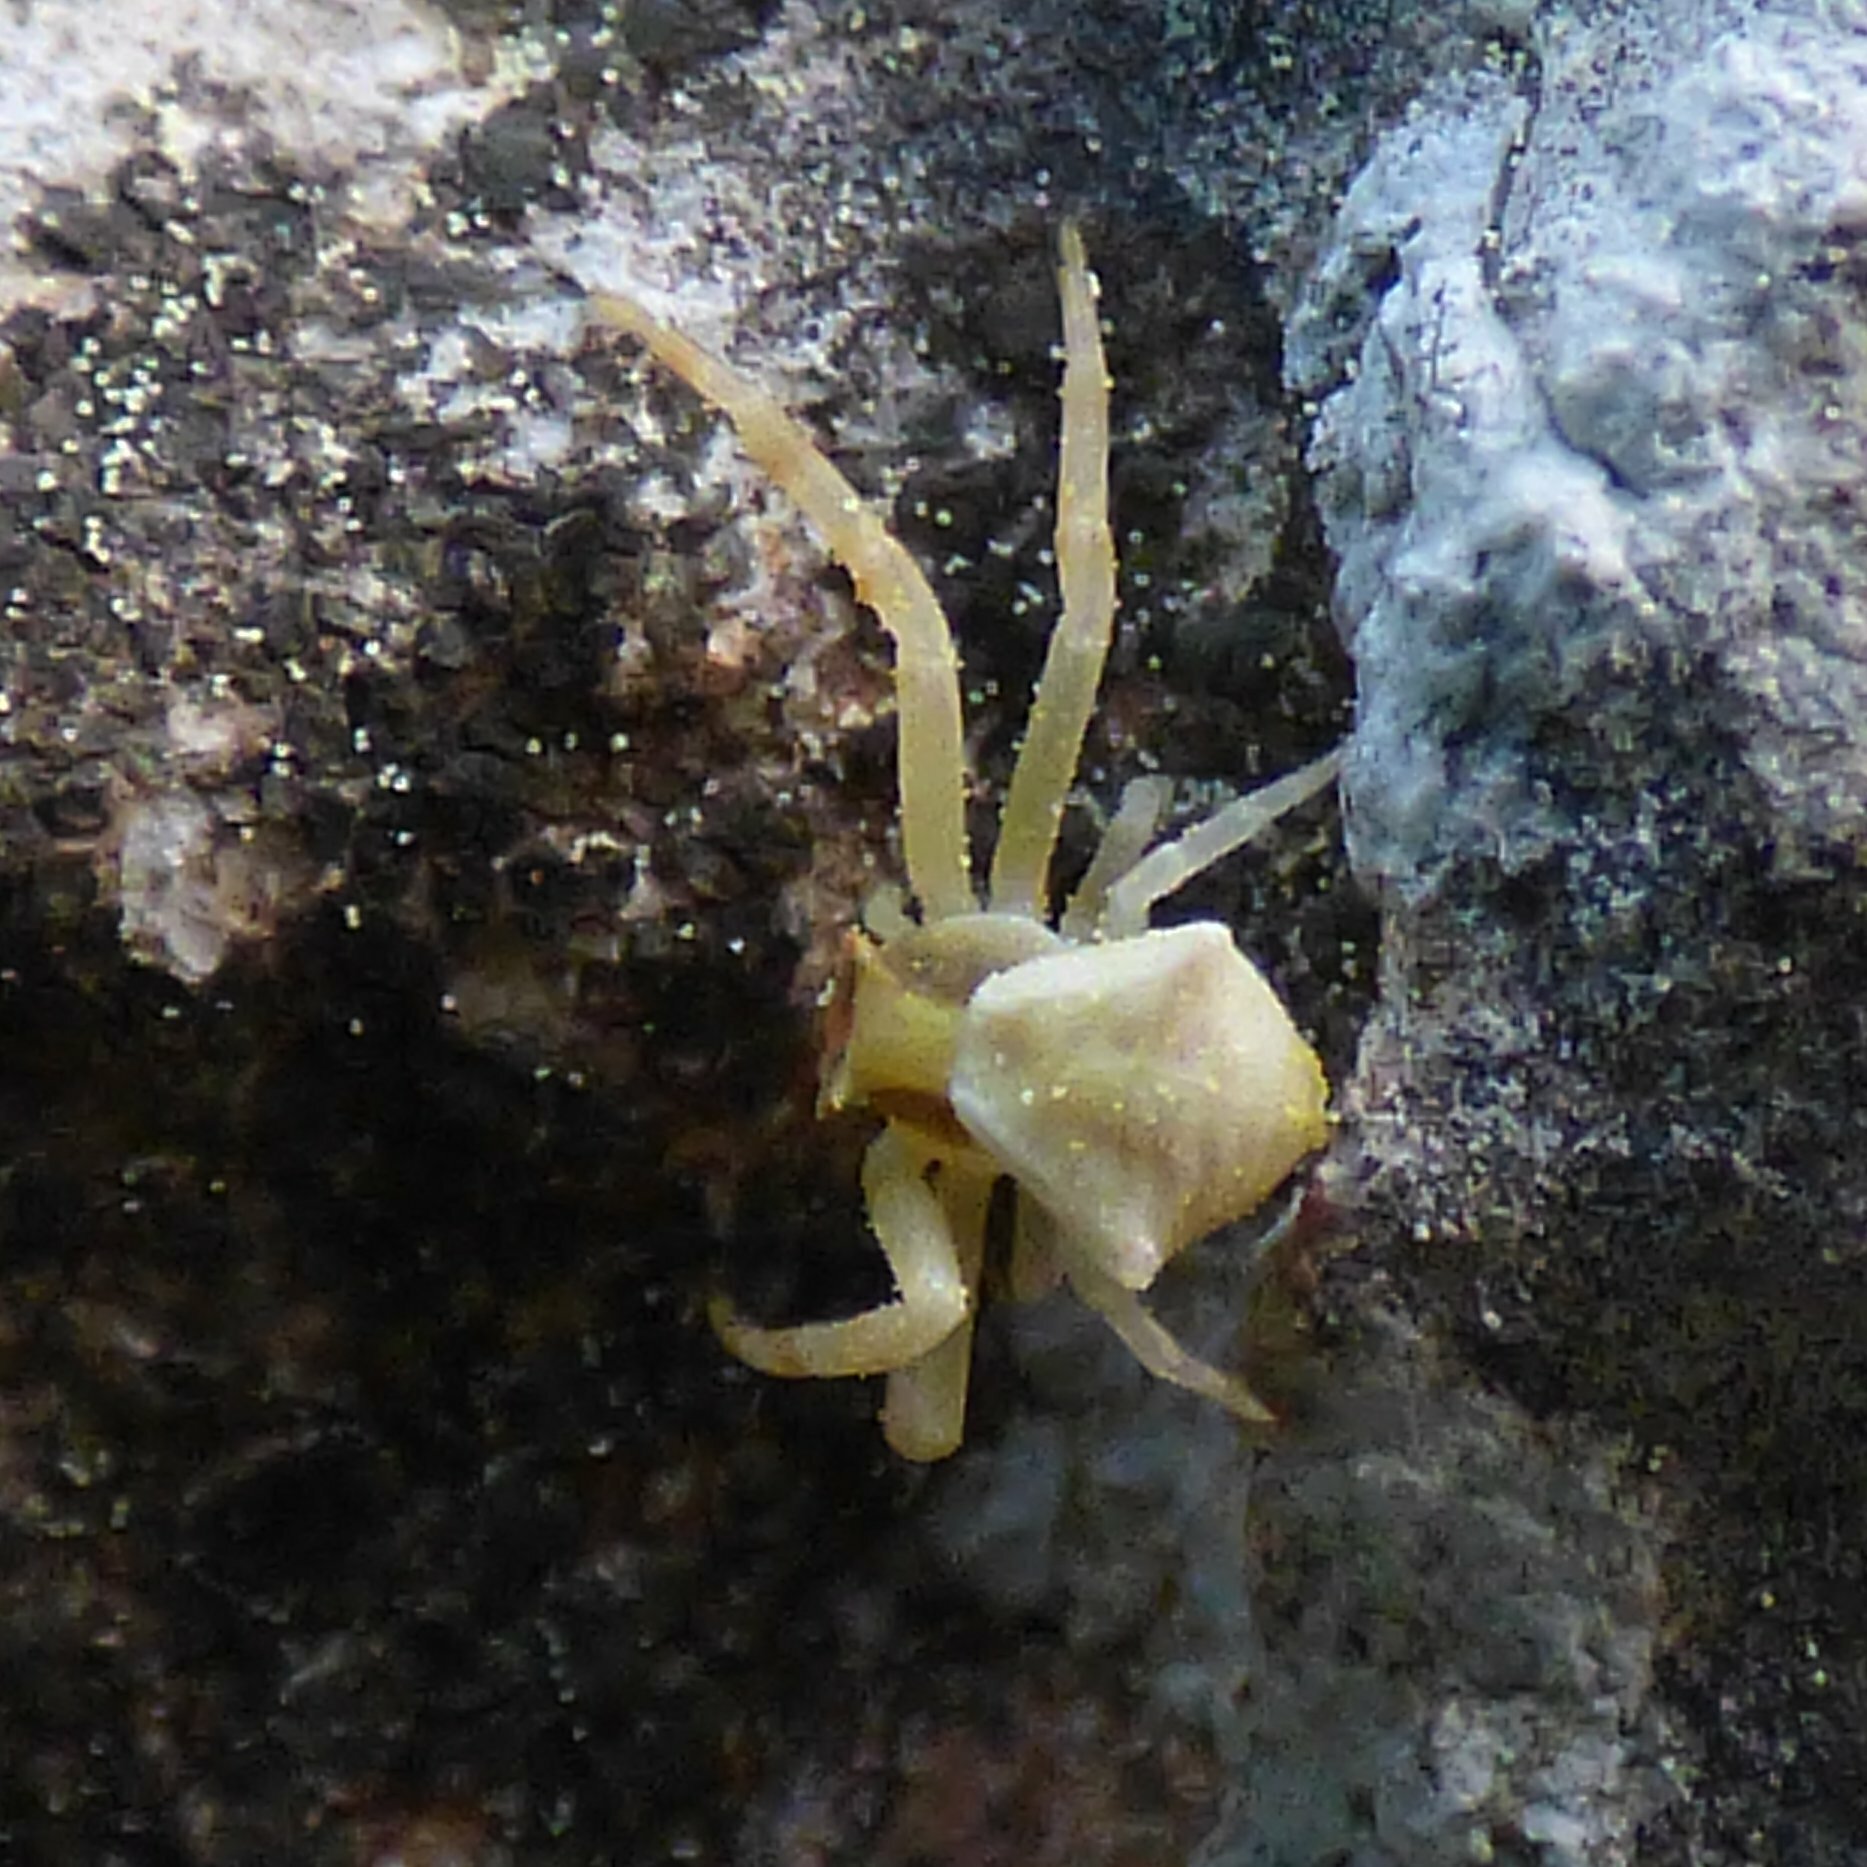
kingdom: Animalia
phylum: Arthropoda
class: Arachnida
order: Araneae
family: Thomisidae
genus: Thomisus
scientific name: Thomisus onustus
